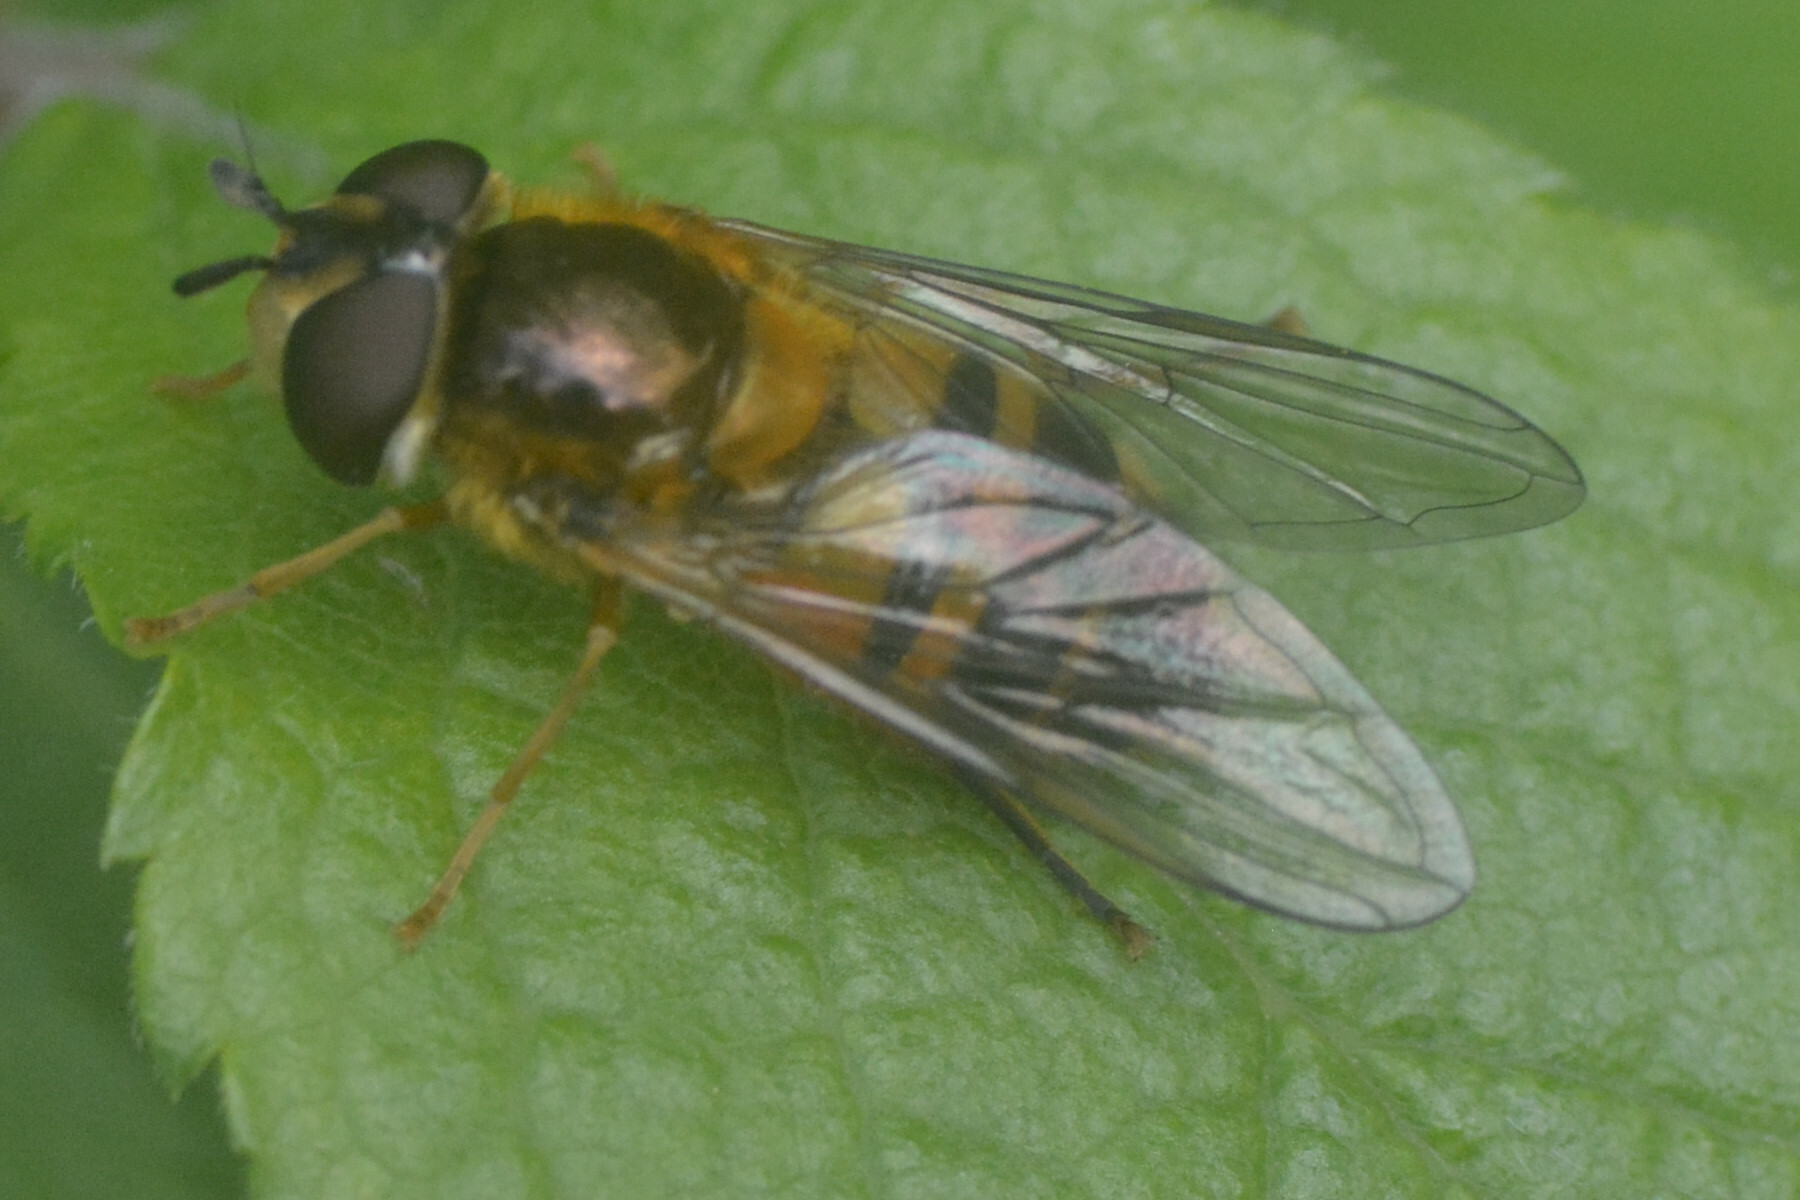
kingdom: Animalia
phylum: Arthropoda
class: Insecta
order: Diptera
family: Syrphidae
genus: Epistrophe
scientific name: Epistrophe eligans
